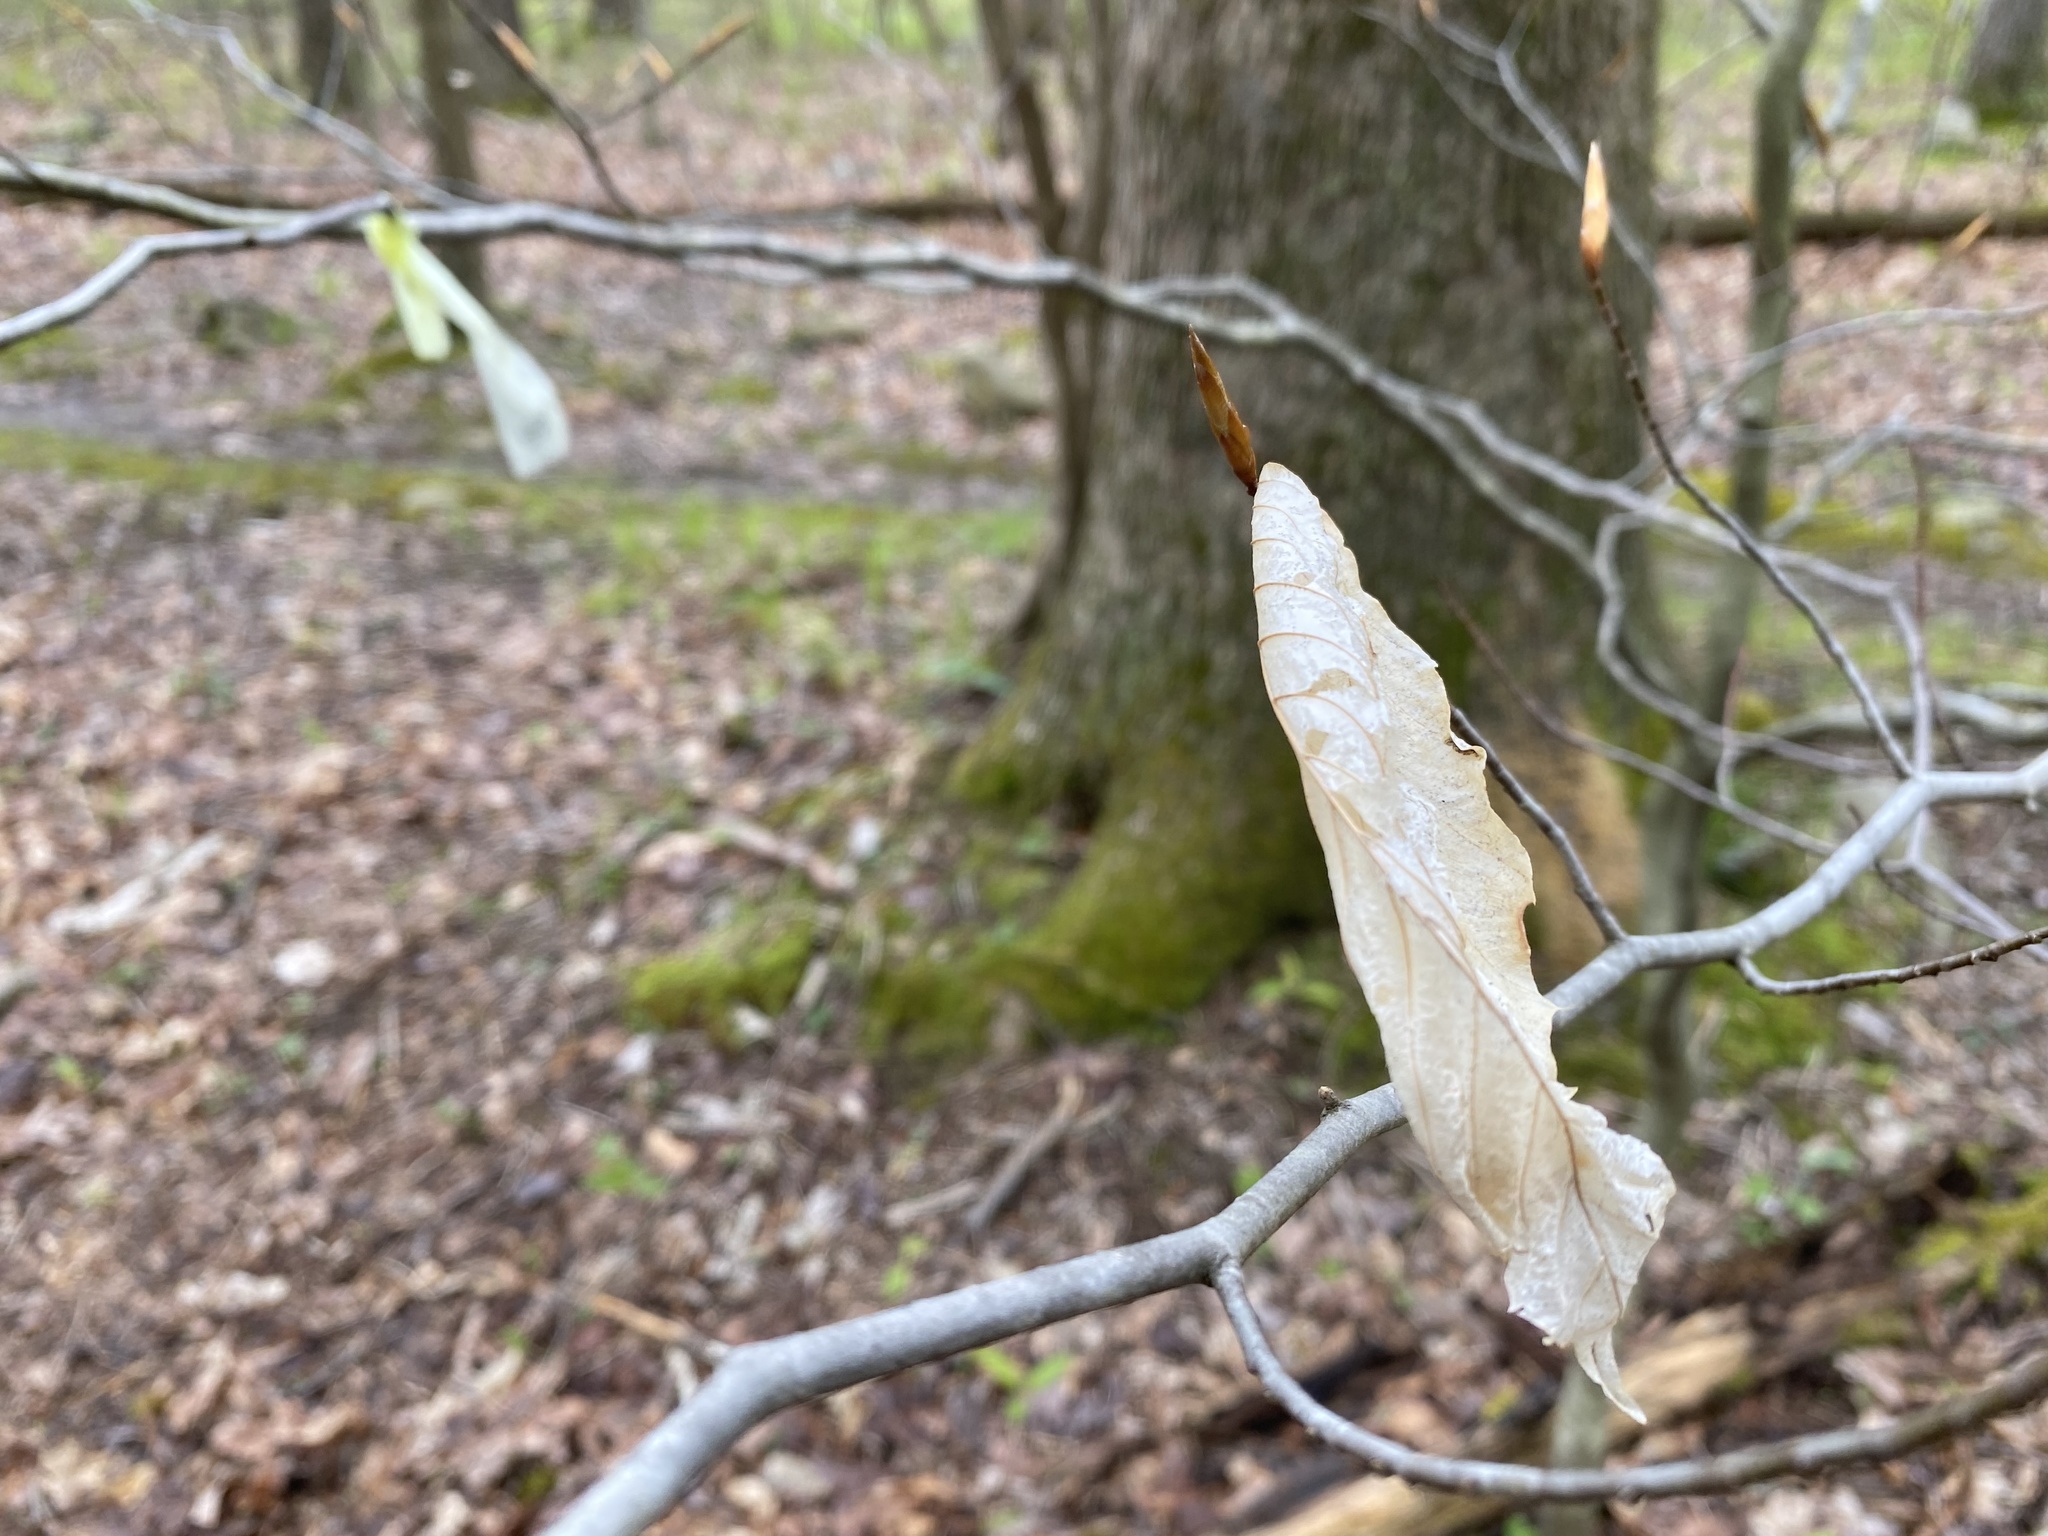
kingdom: Plantae
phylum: Tracheophyta
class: Magnoliopsida
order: Fagales
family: Fagaceae
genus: Fagus
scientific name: Fagus grandifolia
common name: American beech
